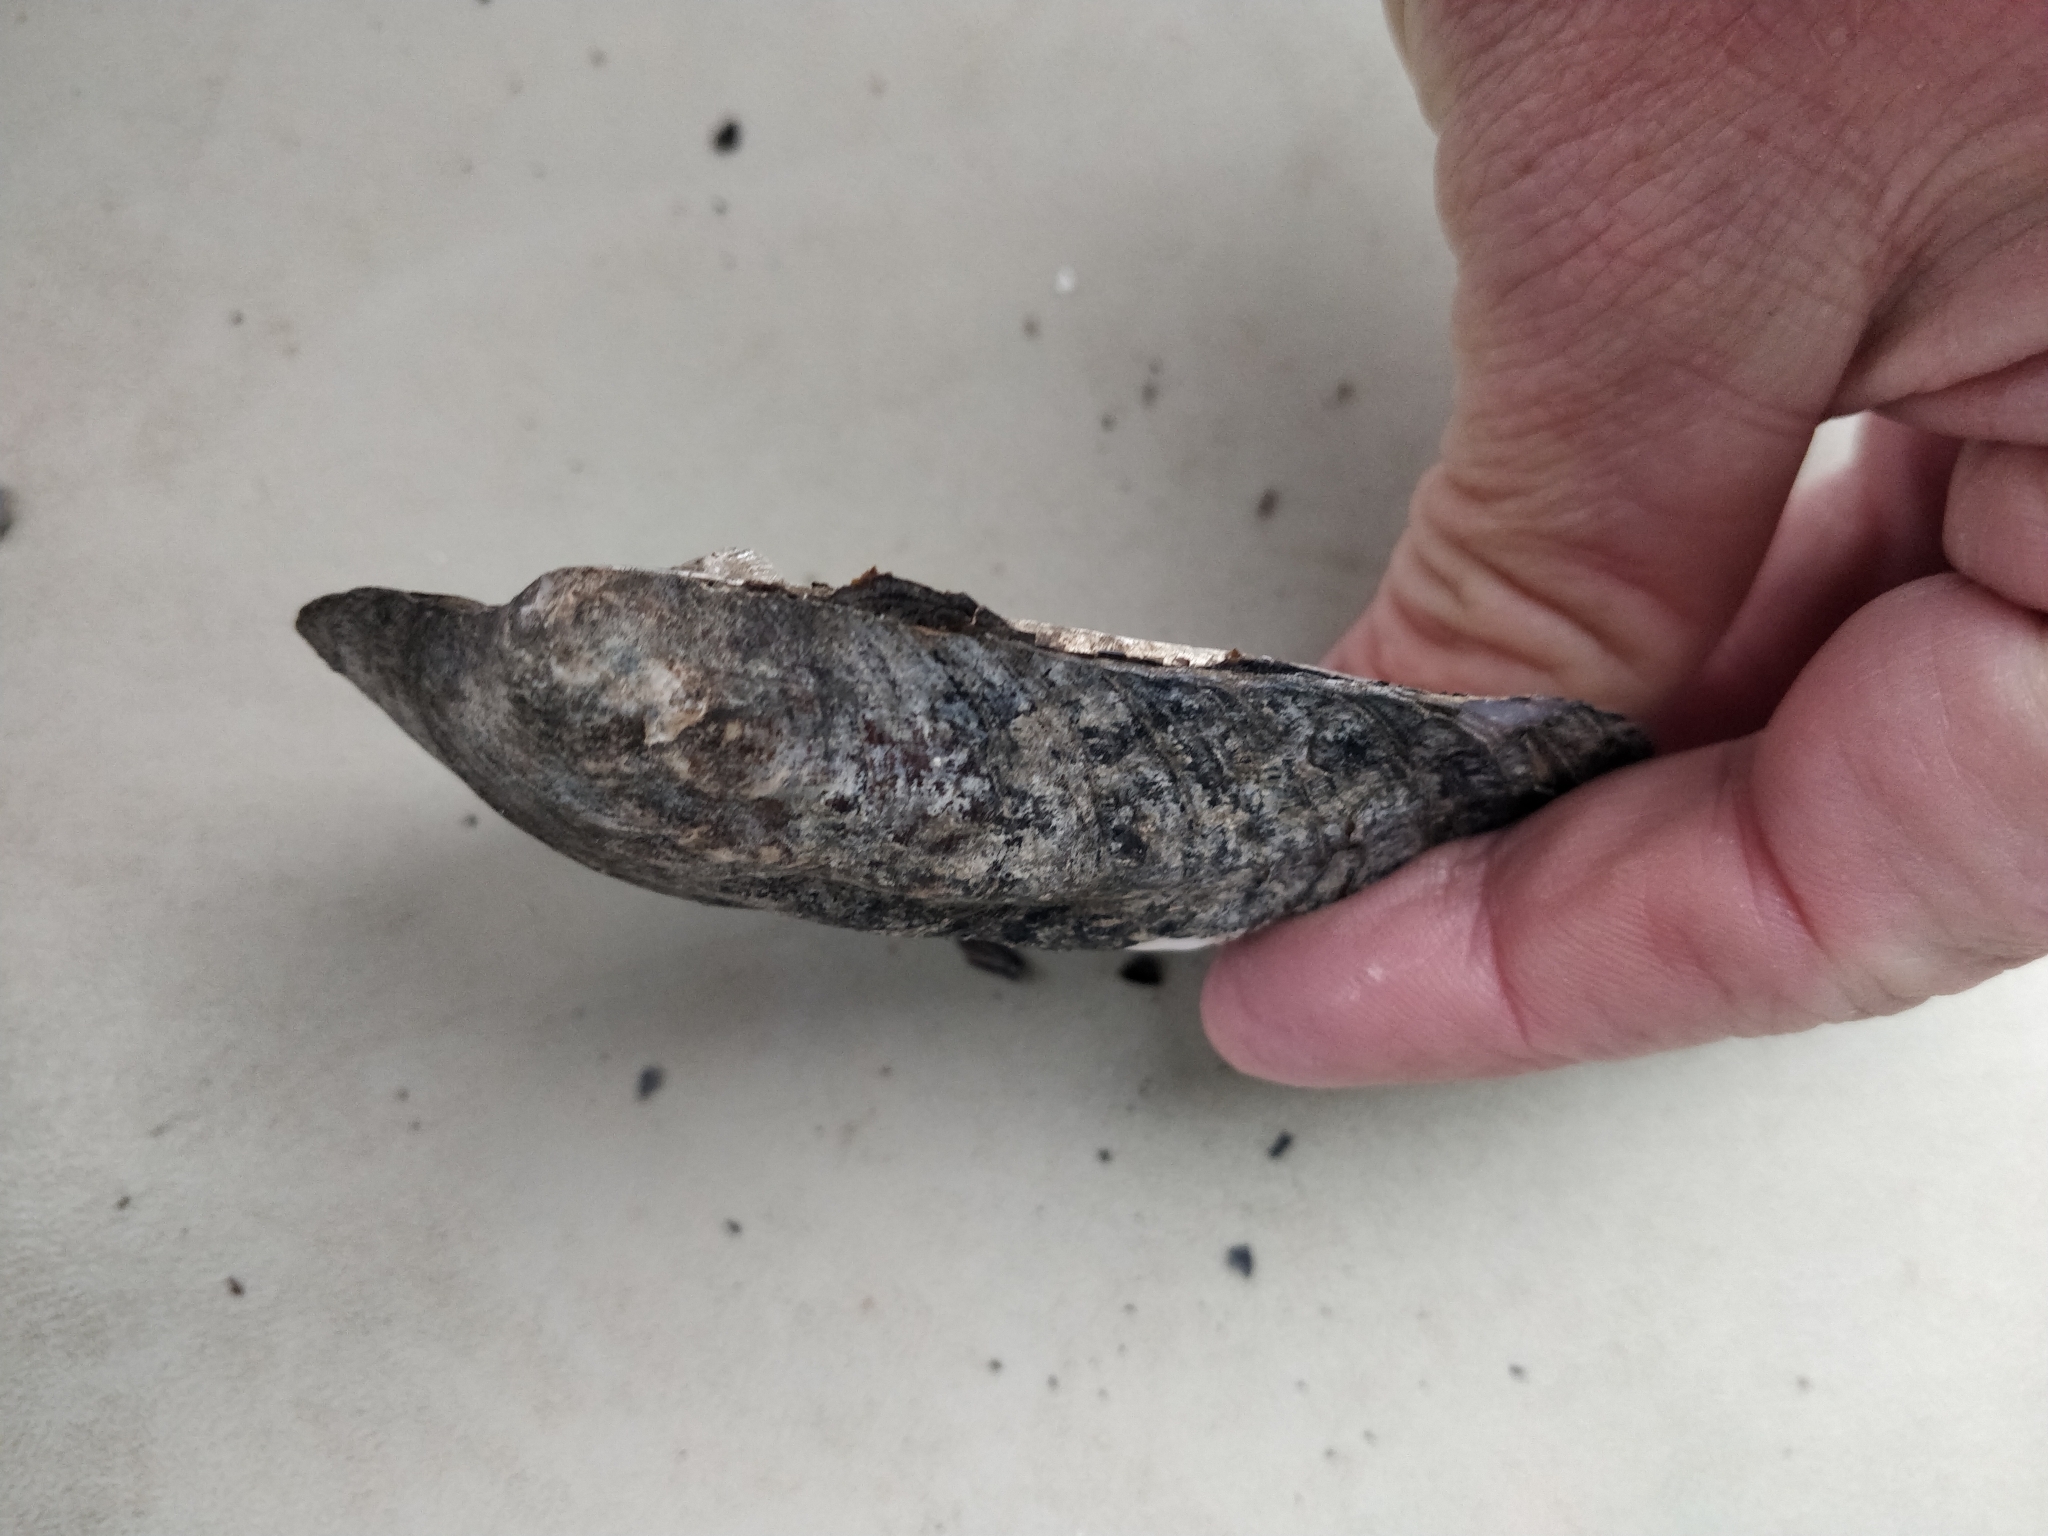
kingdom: Animalia
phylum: Mollusca
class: Bivalvia
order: Unionida
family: Unionidae
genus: Amblema
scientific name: Amblema plicata
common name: Threeridge
